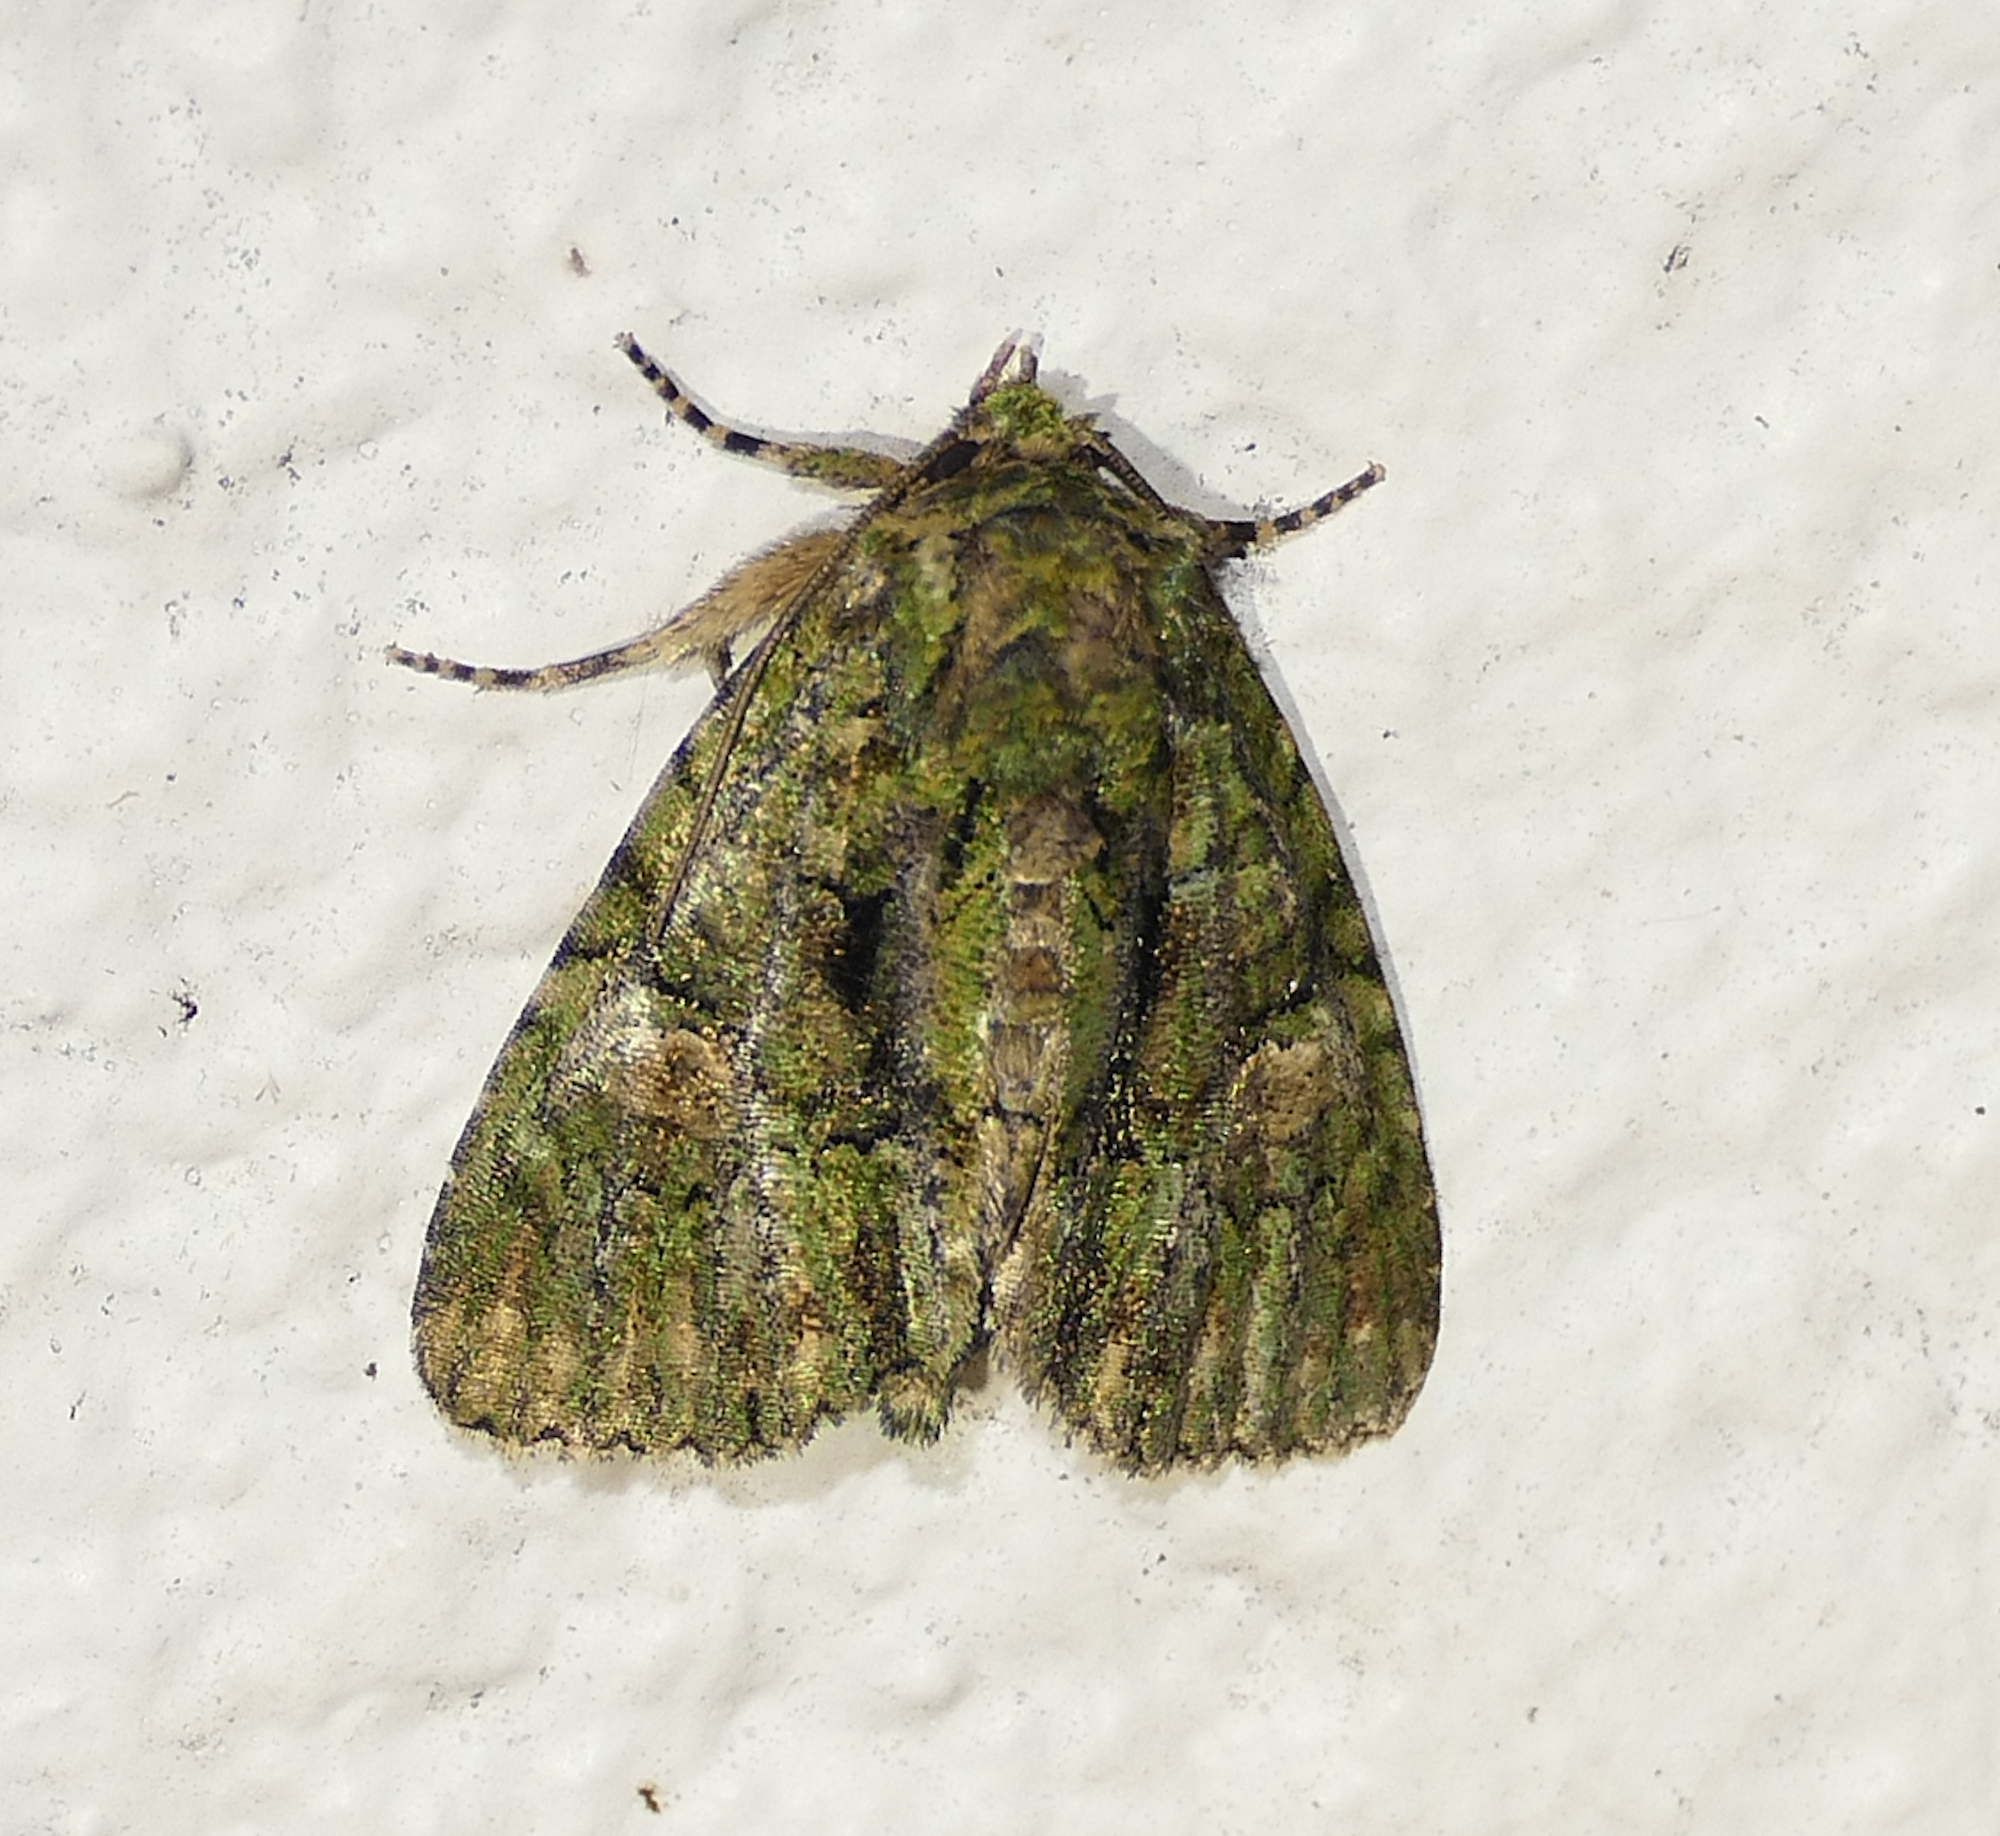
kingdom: Animalia
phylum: Arthropoda
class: Insecta
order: Lepidoptera
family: Noctuidae
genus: Phosphila
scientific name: Phosphila miselioides
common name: Spotted phosphila moth
